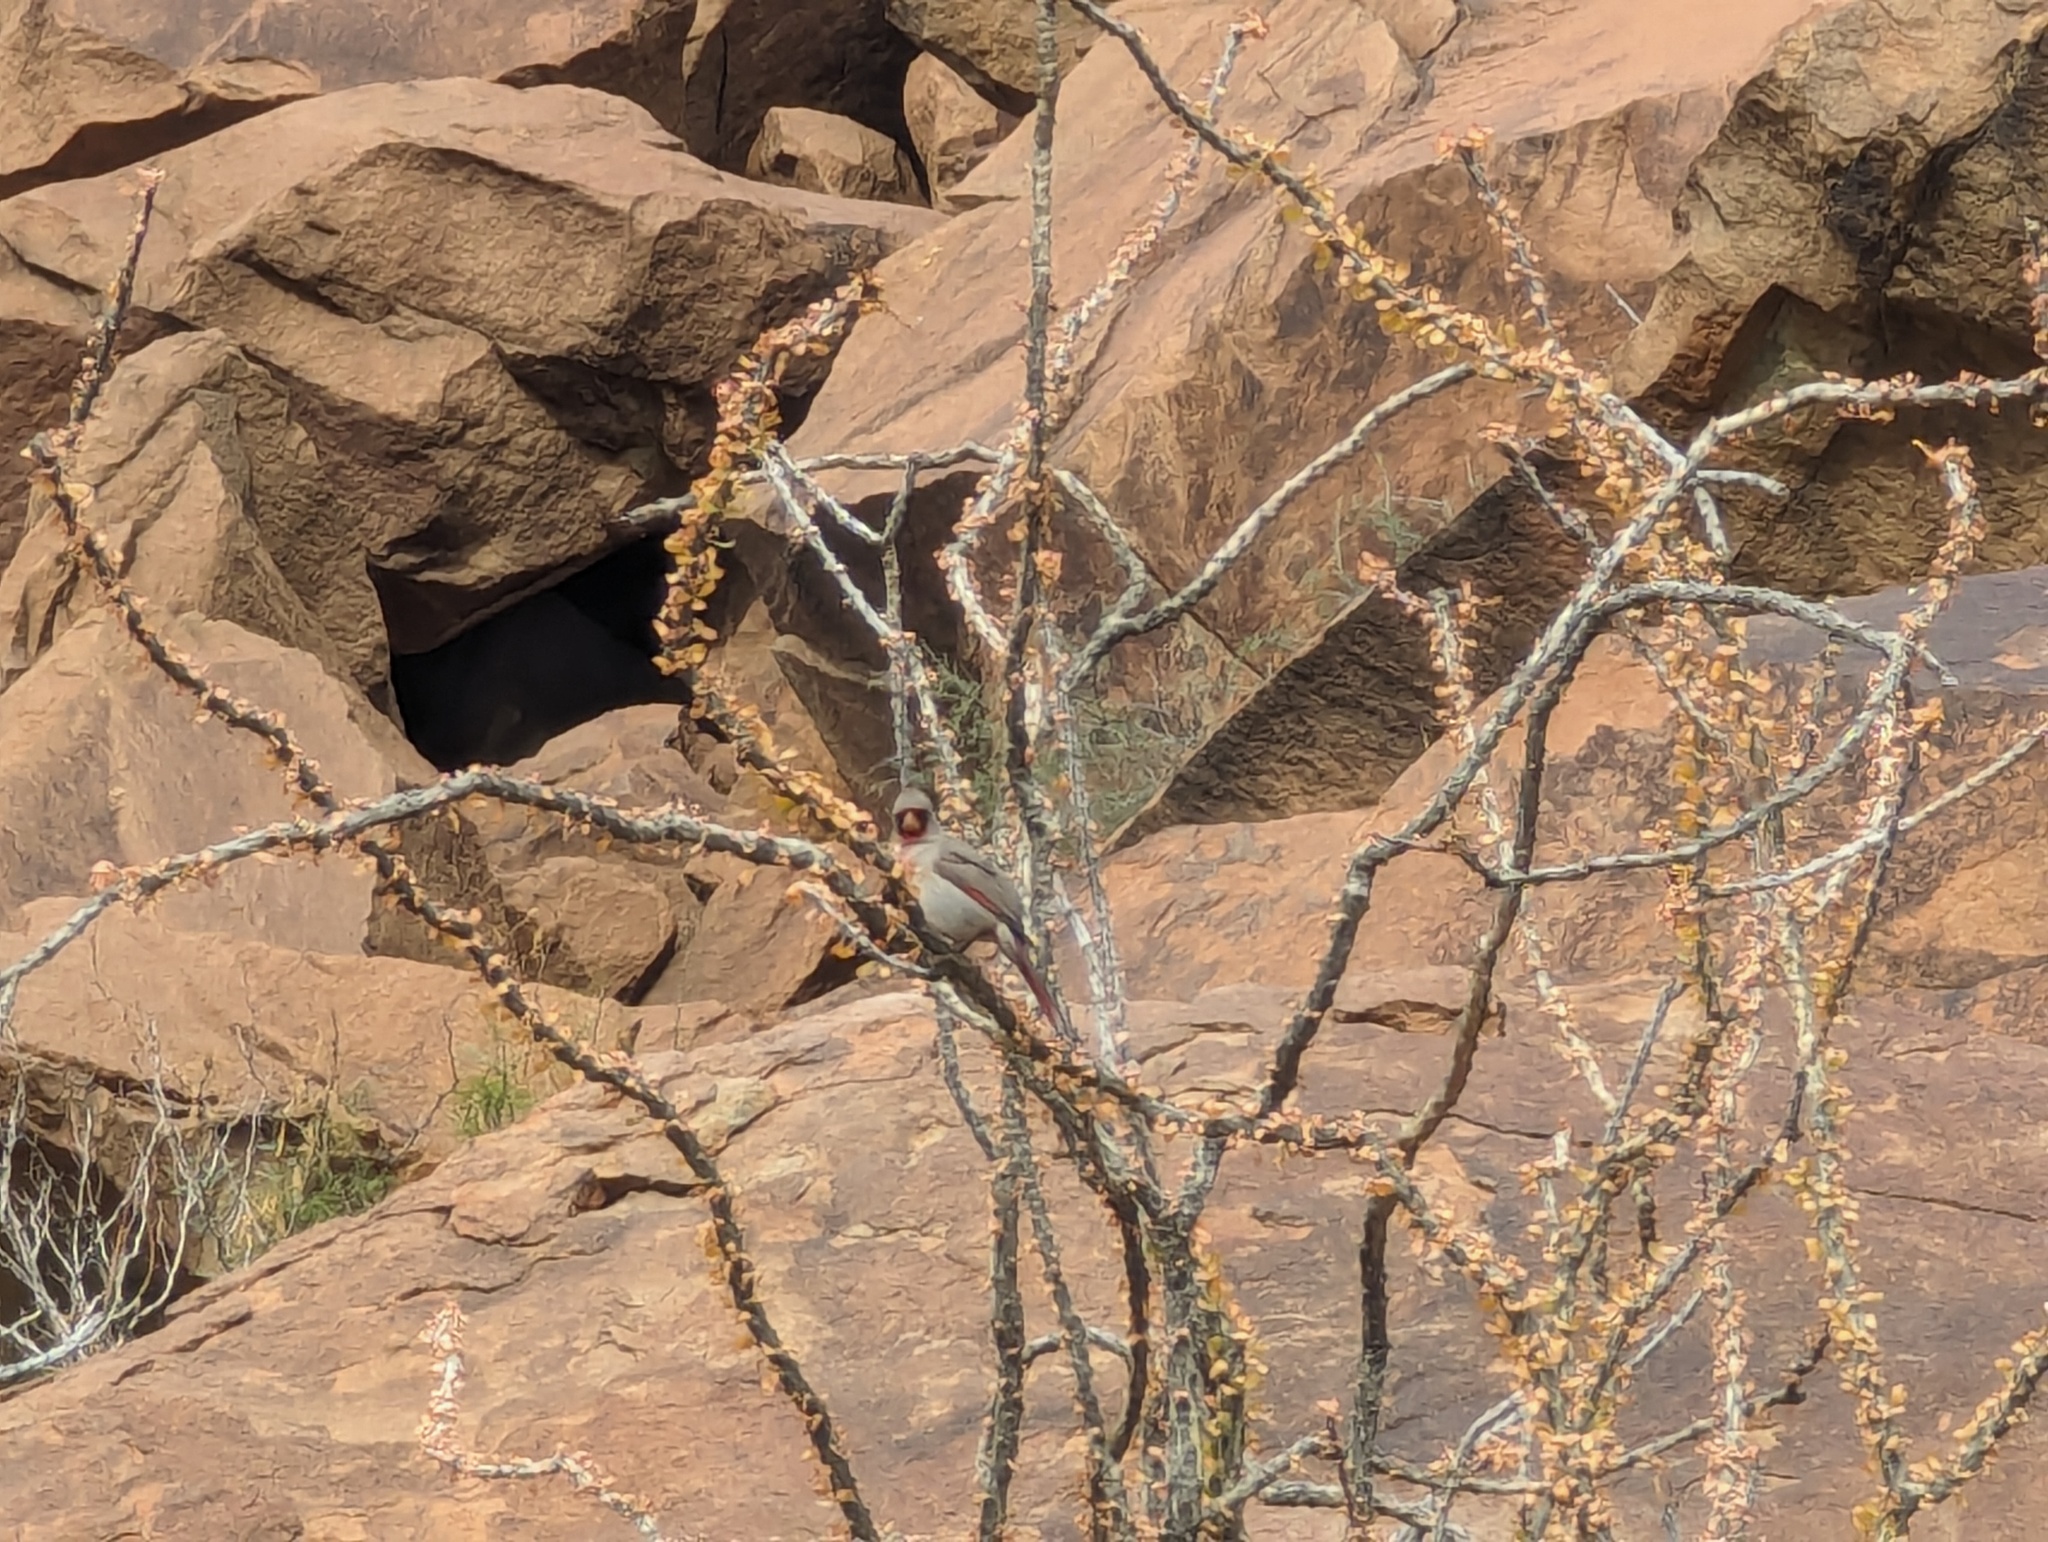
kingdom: Animalia
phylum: Chordata
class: Aves
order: Passeriformes
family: Cardinalidae
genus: Cardinalis
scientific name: Cardinalis sinuatus
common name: Pyrrhuloxia
